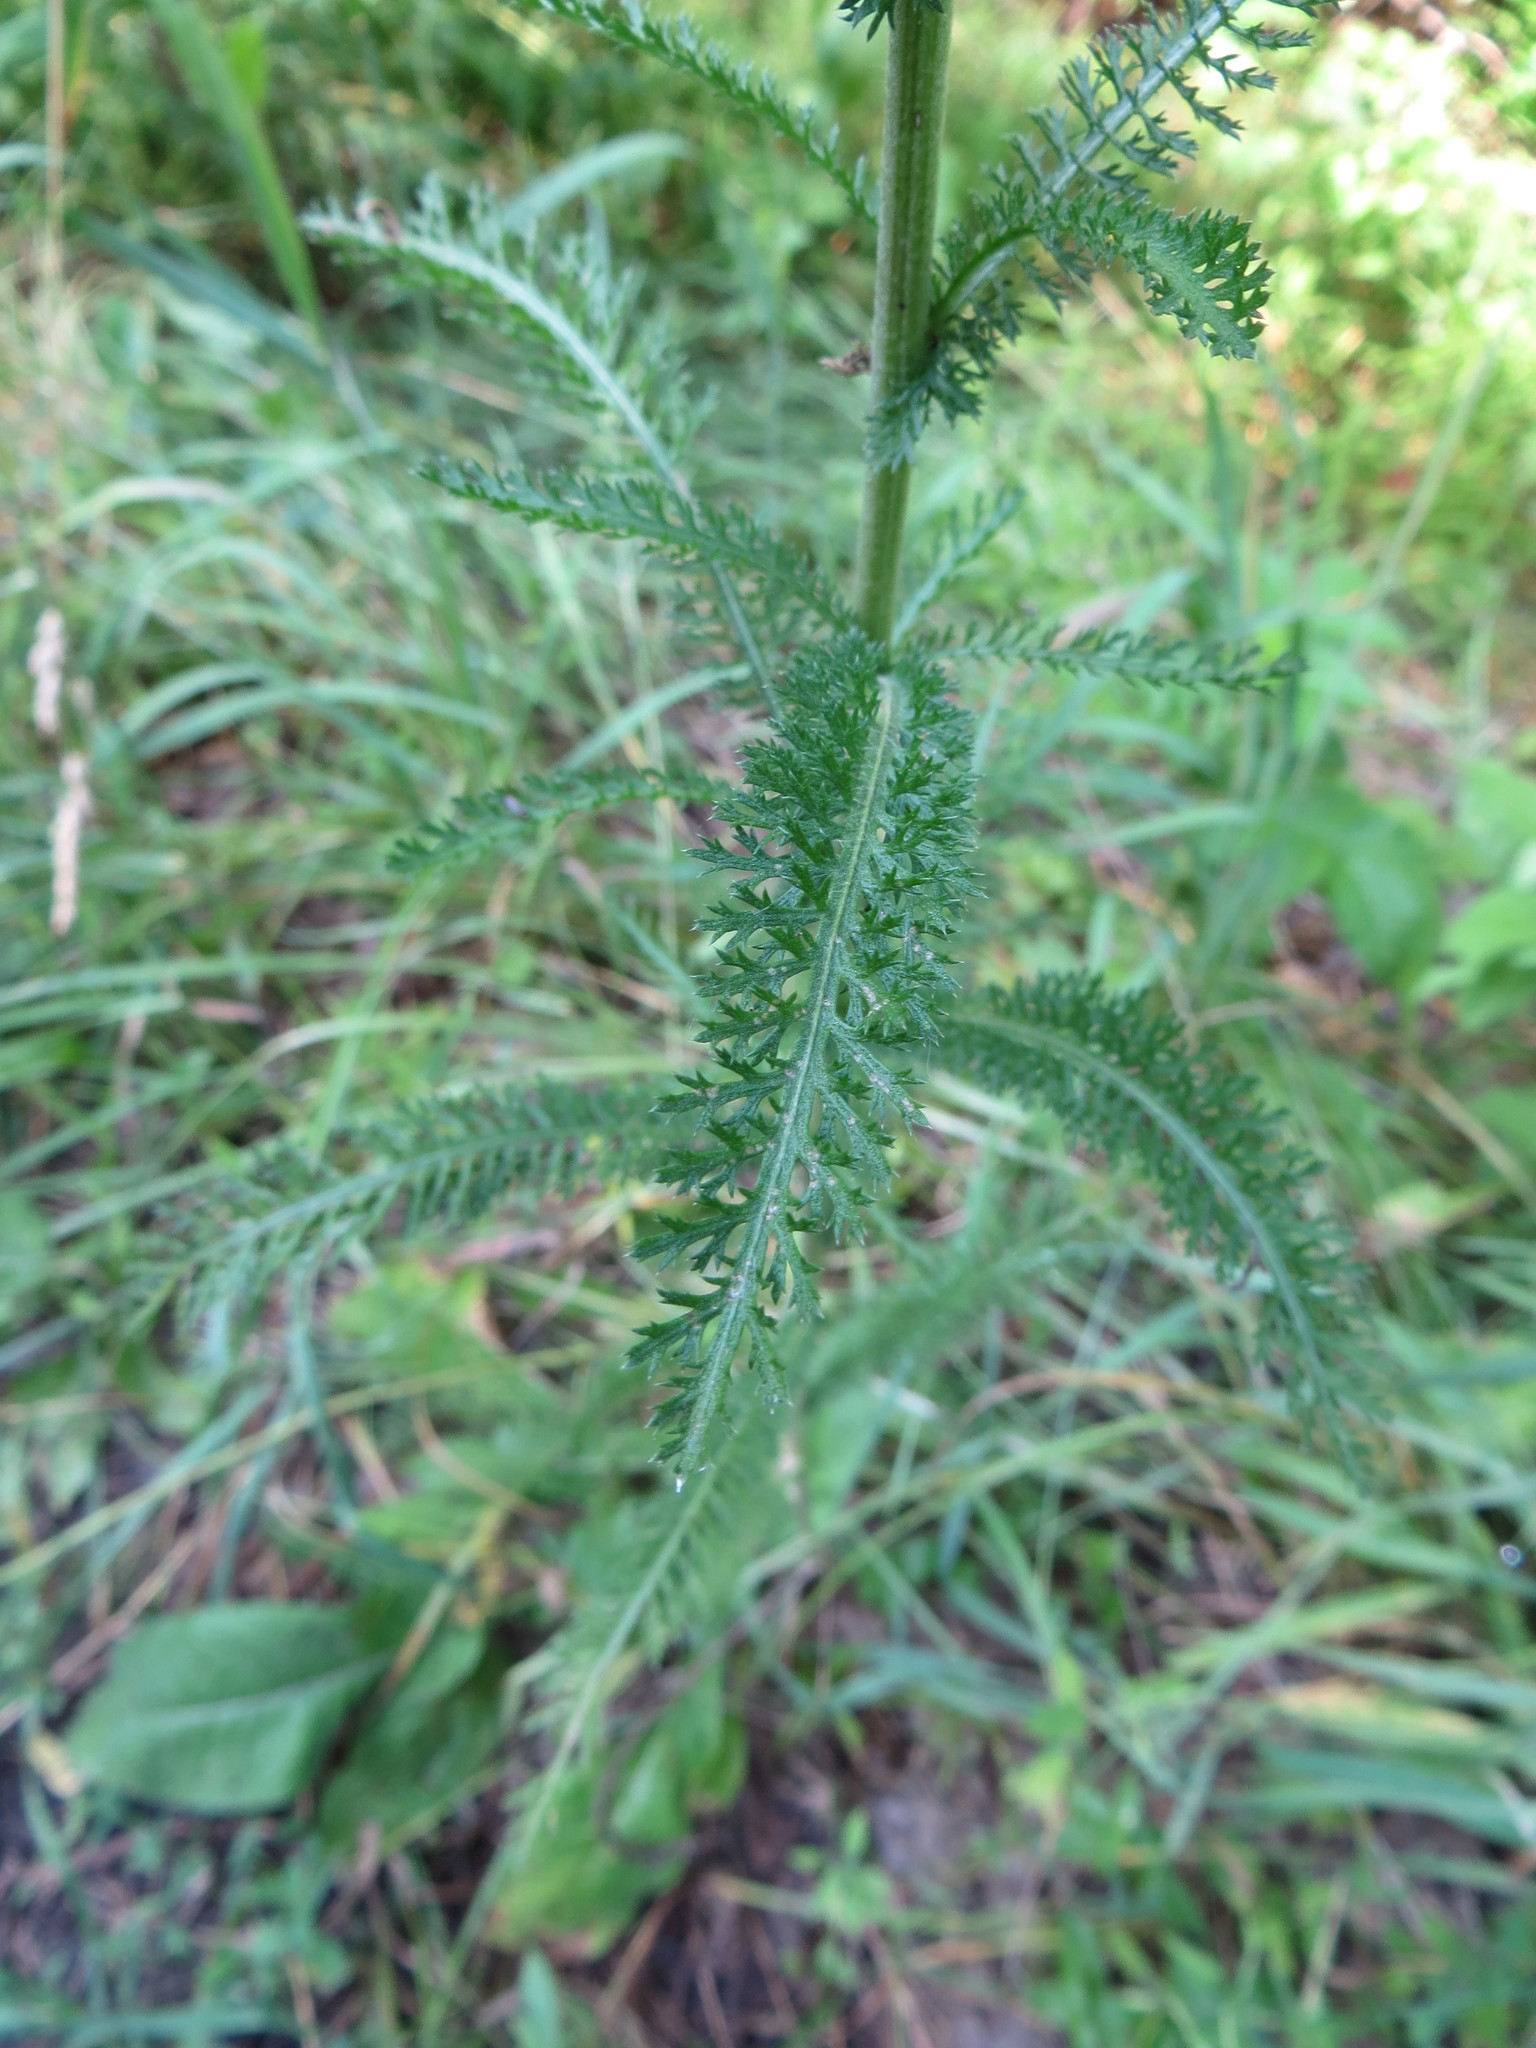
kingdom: Plantae
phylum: Tracheophyta
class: Magnoliopsida
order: Asterales
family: Asteraceae
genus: Achillea
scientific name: Achillea millefolium
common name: Yarrow
